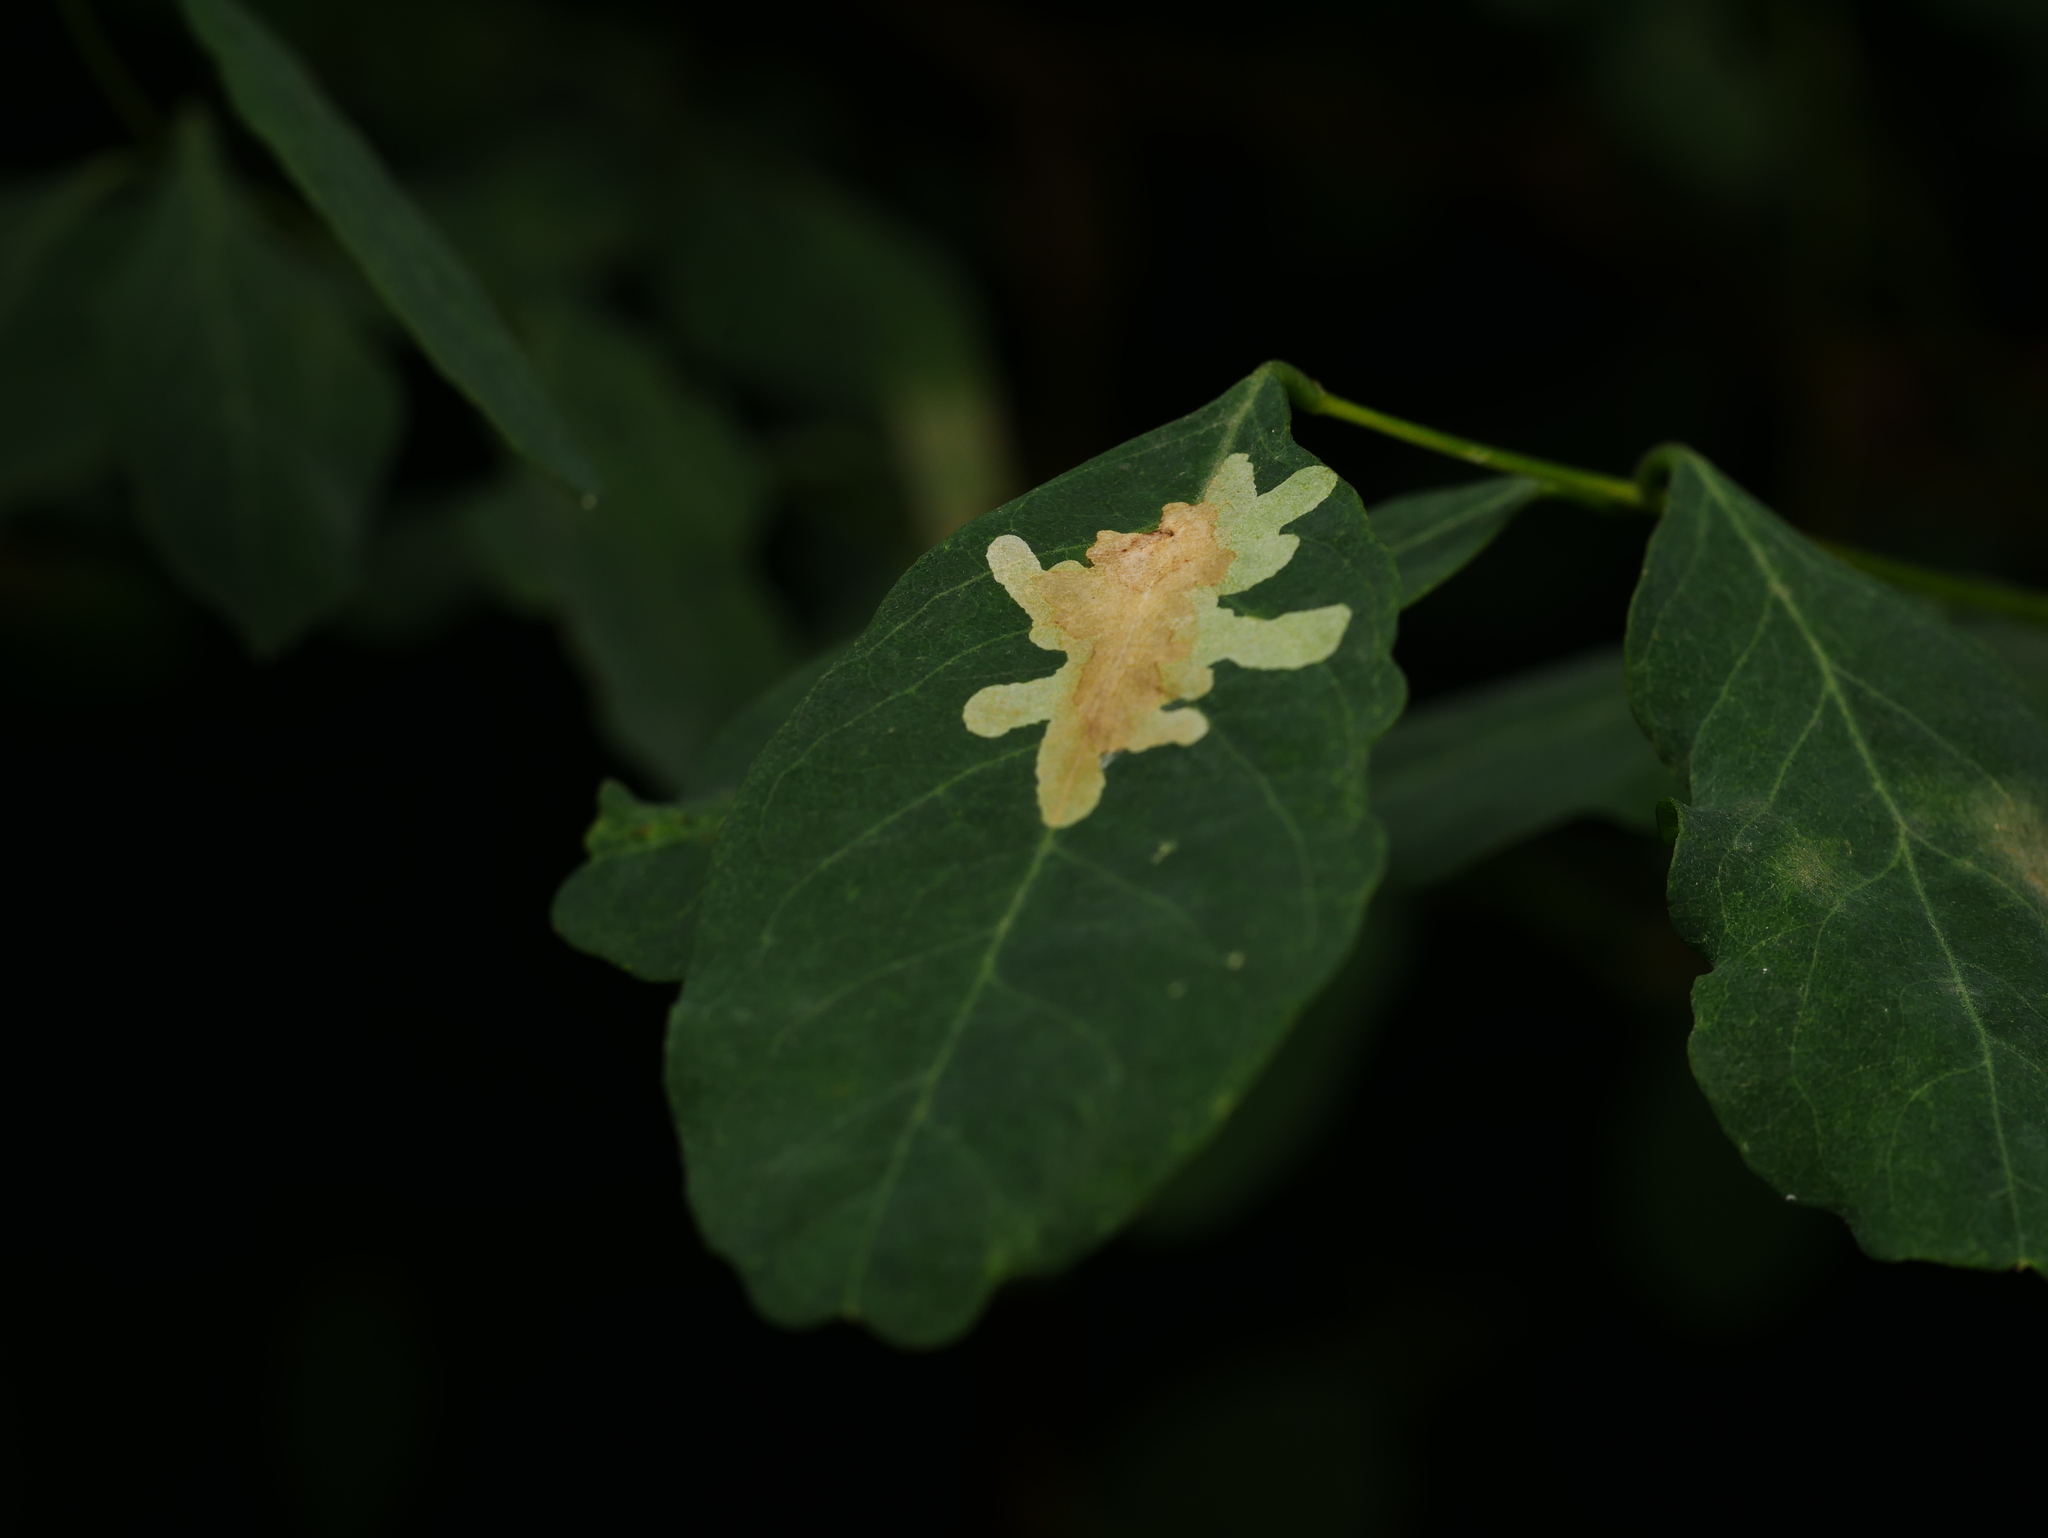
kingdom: Animalia
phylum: Arthropoda
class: Insecta
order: Lepidoptera
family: Gracillariidae
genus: Parectopa
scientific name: Parectopa robiniella
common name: Locust digitate leafminer
